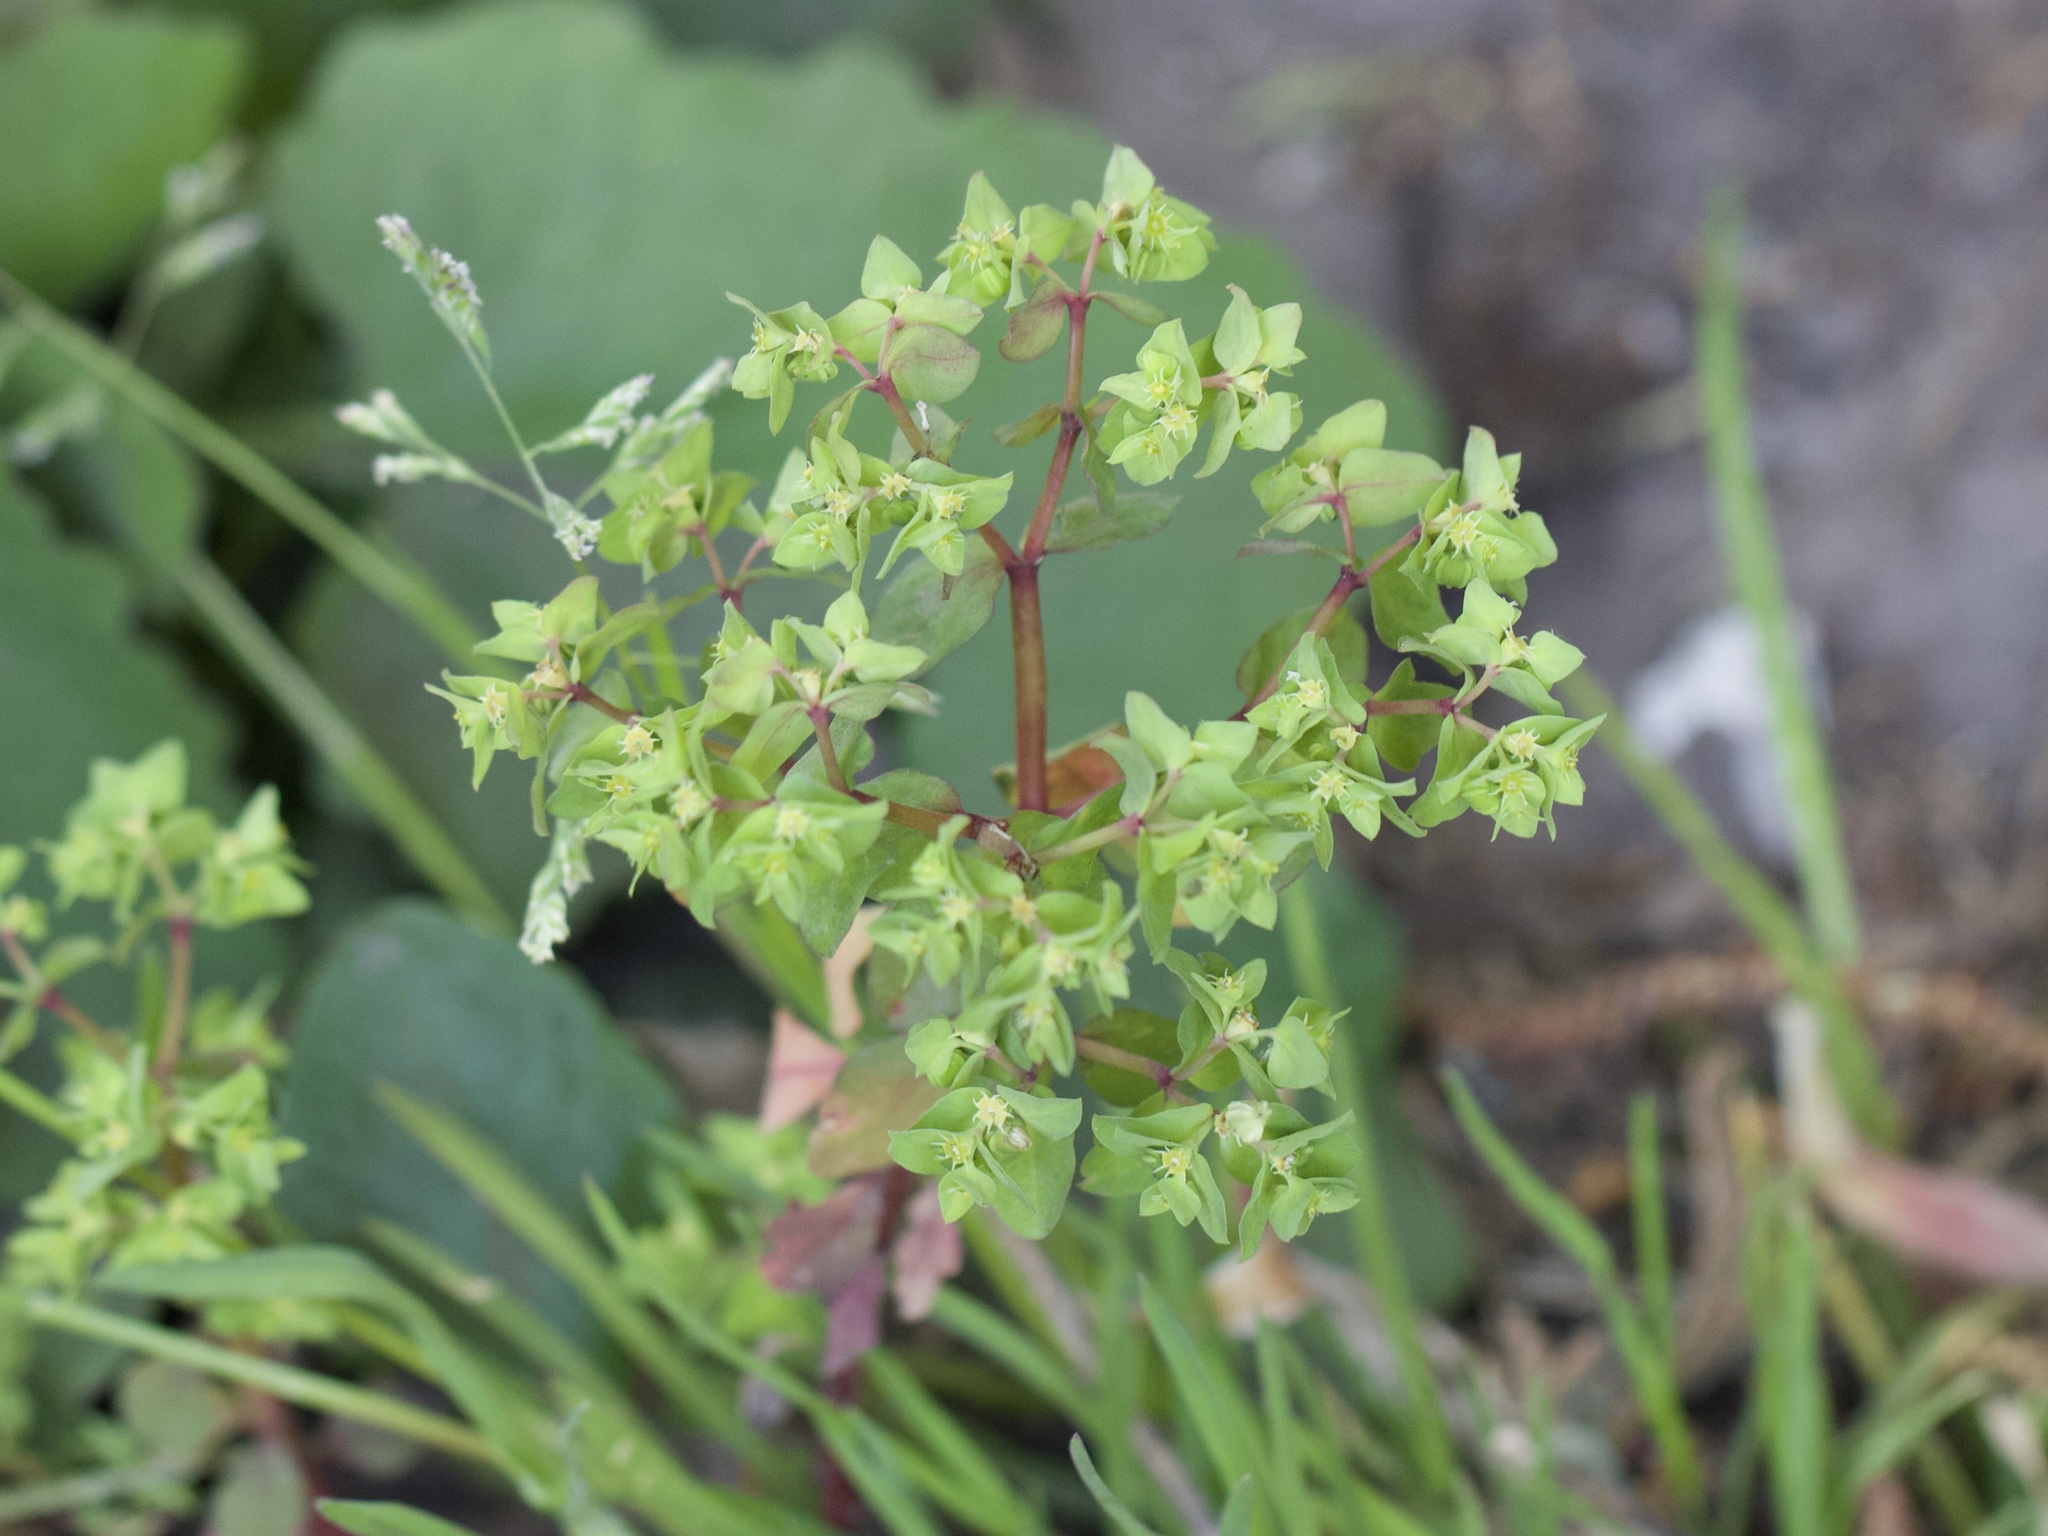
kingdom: Plantae
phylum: Tracheophyta
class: Magnoliopsida
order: Malpighiales
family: Euphorbiaceae
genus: Euphorbia
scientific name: Euphorbia peplus
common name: Petty spurge
